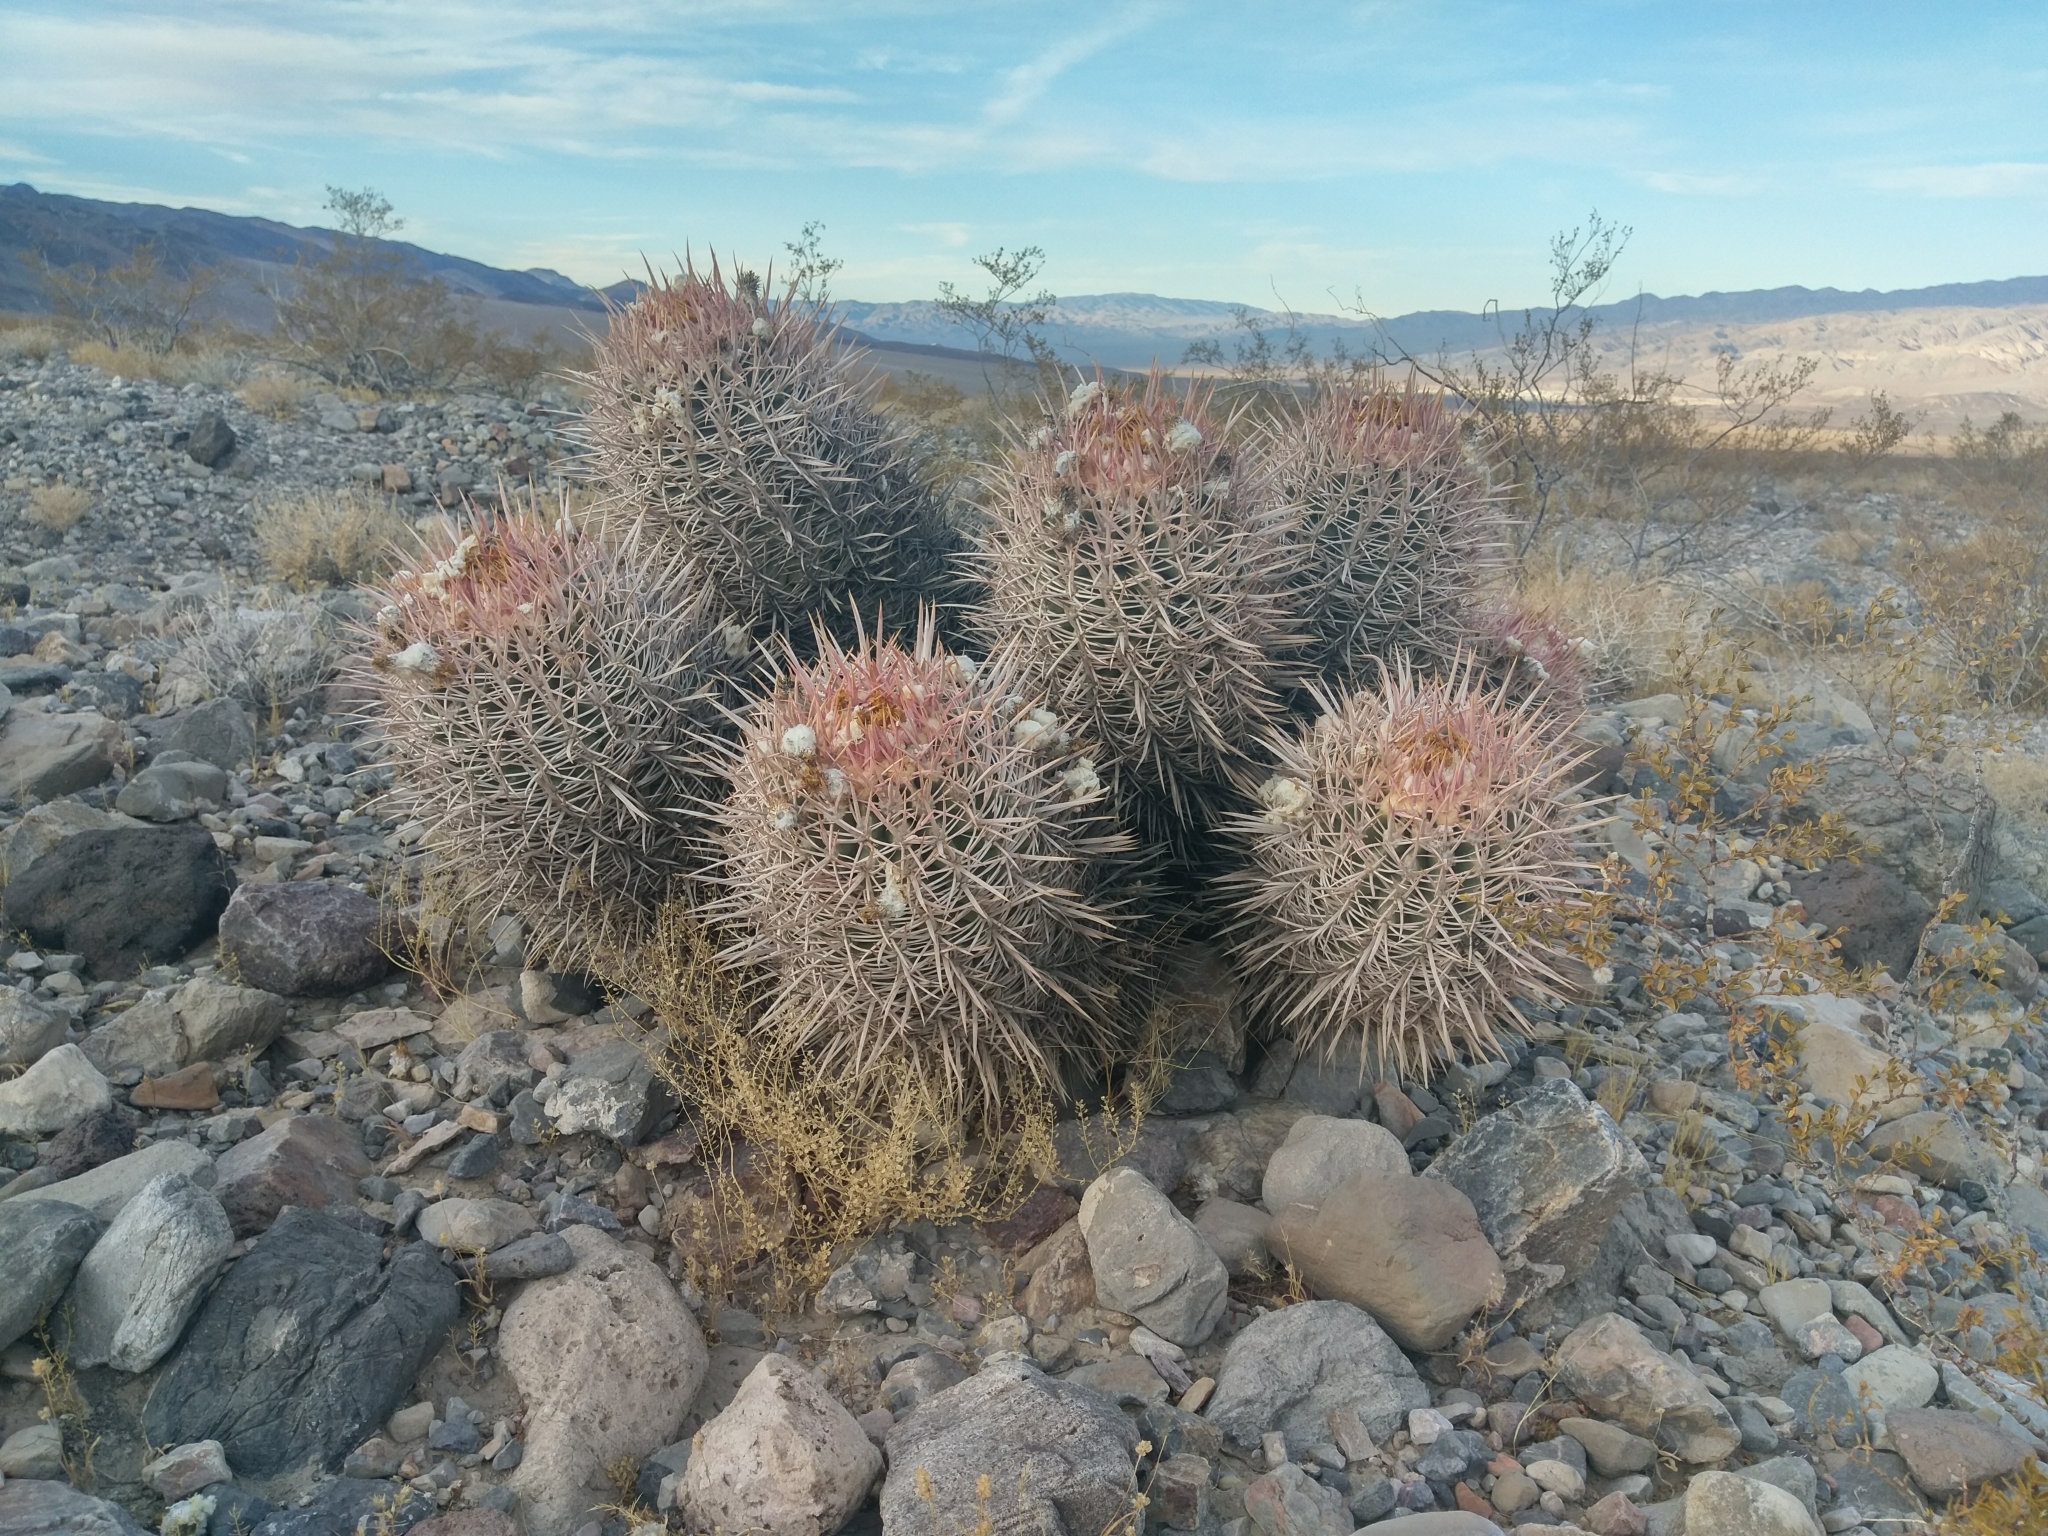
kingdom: Plantae
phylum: Tracheophyta
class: Magnoliopsida
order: Caryophyllales
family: Cactaceae
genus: Echinocactus
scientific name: Echinocactus polycephalus
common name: Cottontop cactus
